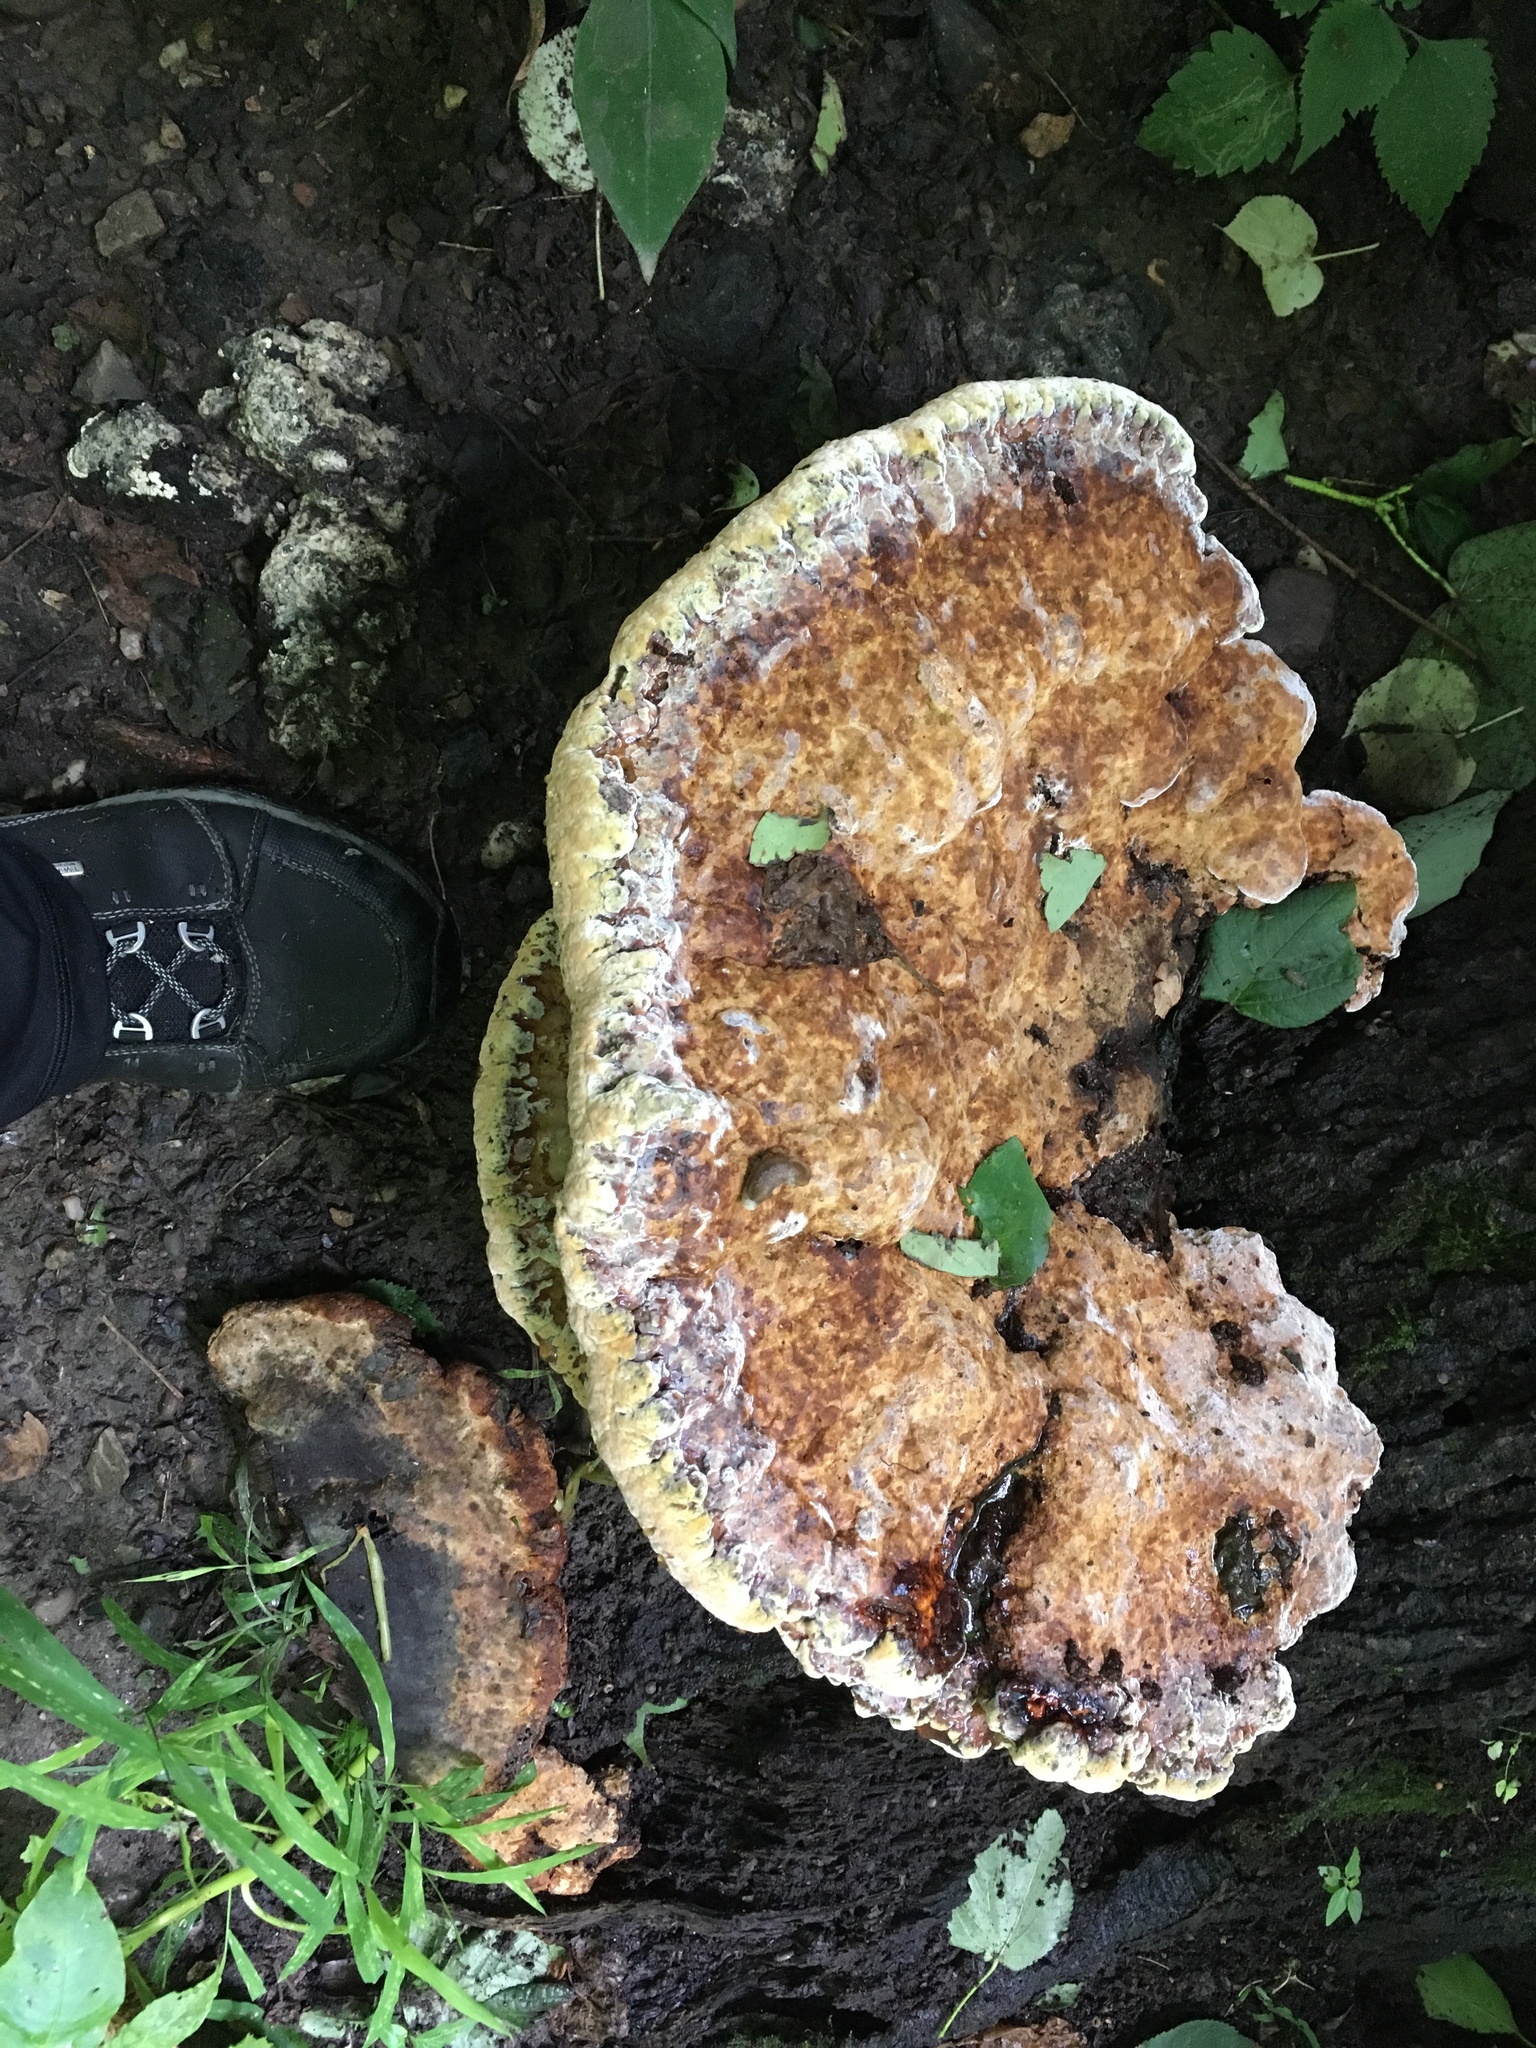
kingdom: Fungi
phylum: Basidiomycota
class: Agaricomycetes
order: Hymenochaetales
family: Hymenochaetaceae
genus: Pseudoinonotus
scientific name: Pseudoinonotus dryadeus
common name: Oak bracket
